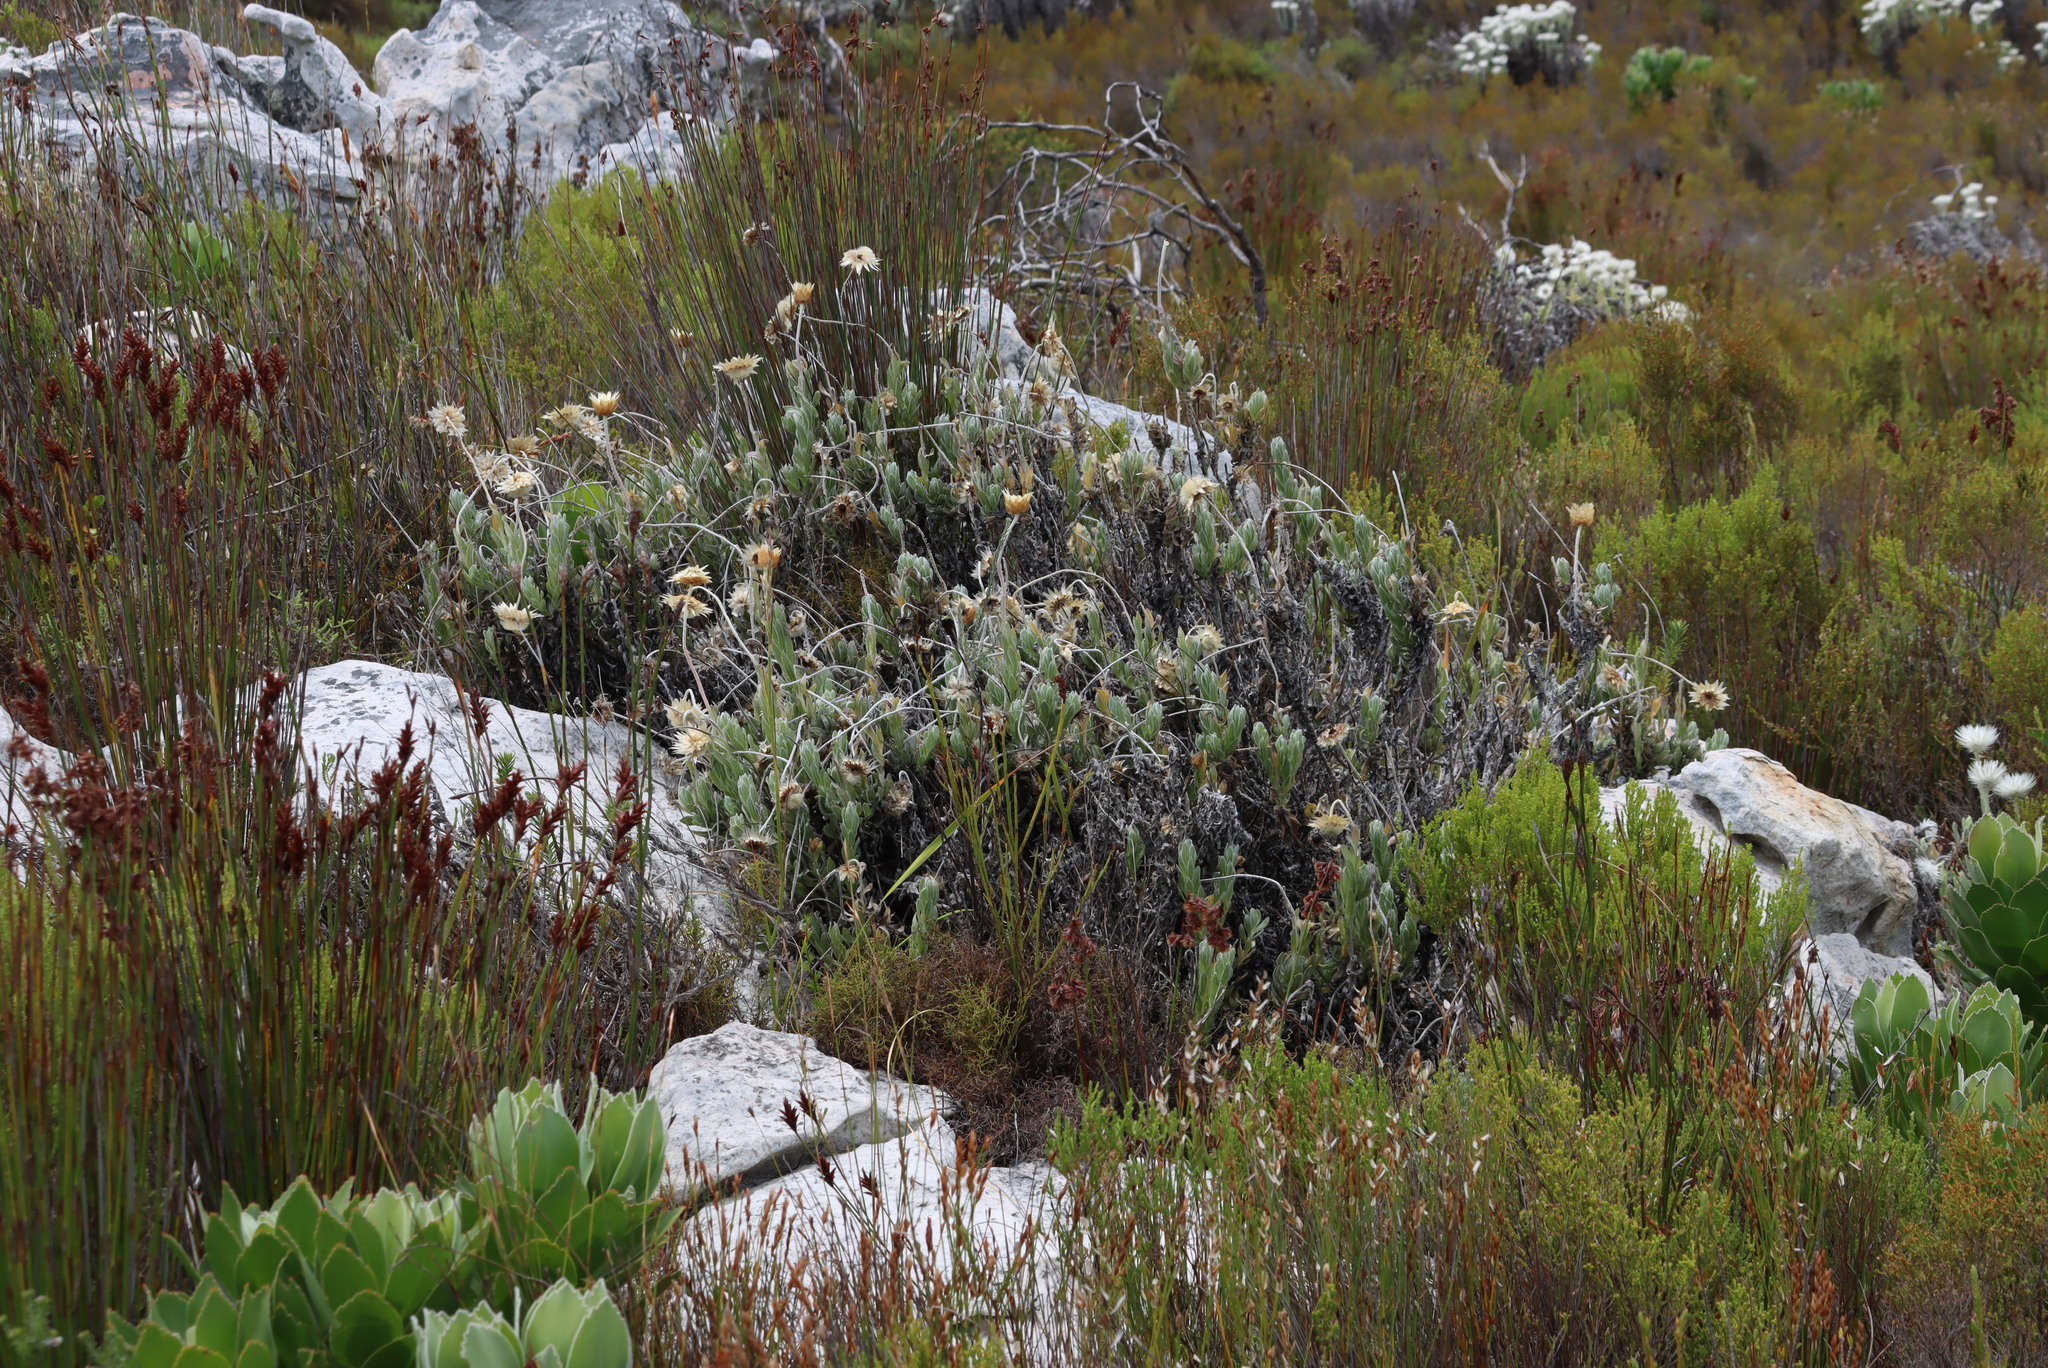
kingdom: Plantae
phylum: Tracheophyta
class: Magnoliopsida
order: Asterales
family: Asteraceae
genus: Syncarpha
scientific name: Syncarpha speciosissima
